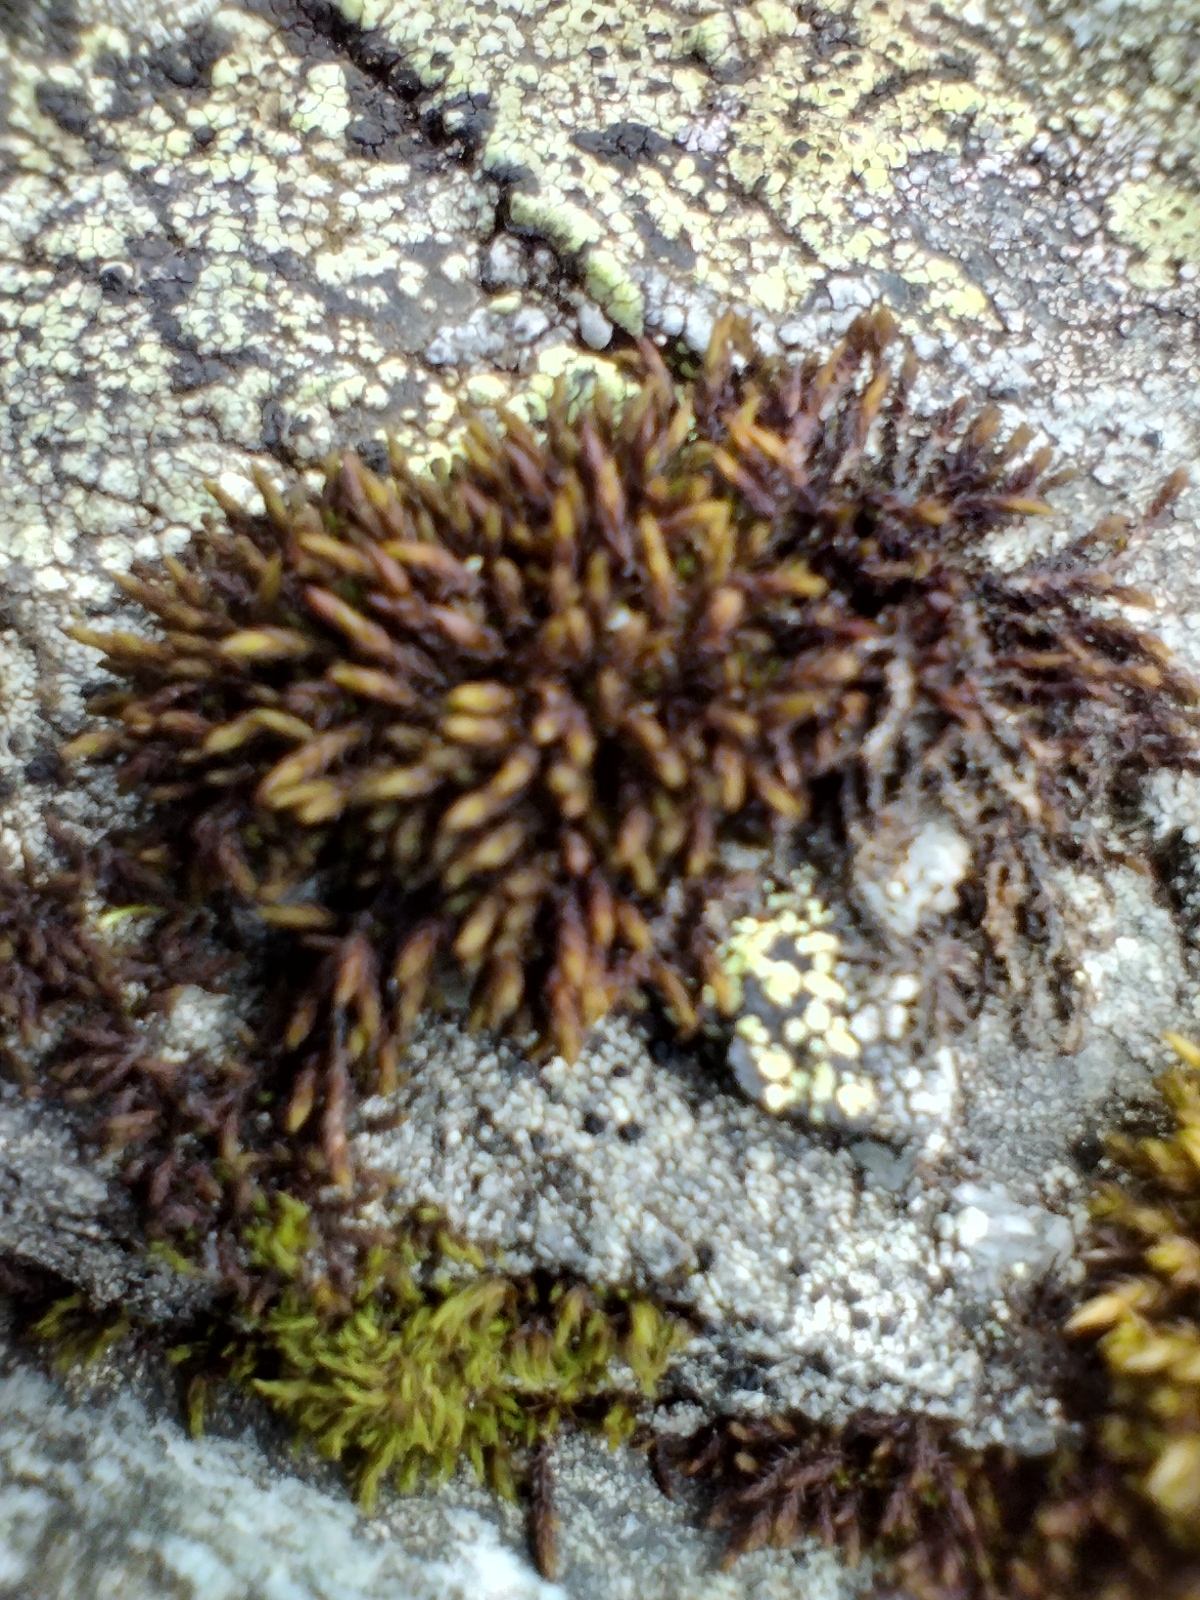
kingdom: Plantae
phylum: Bryophyta
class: Andreaeopsida
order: Andreaeales
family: Andreaeaceae
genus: Andreaea
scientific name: Andreaea rupestris
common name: Black rock moss
